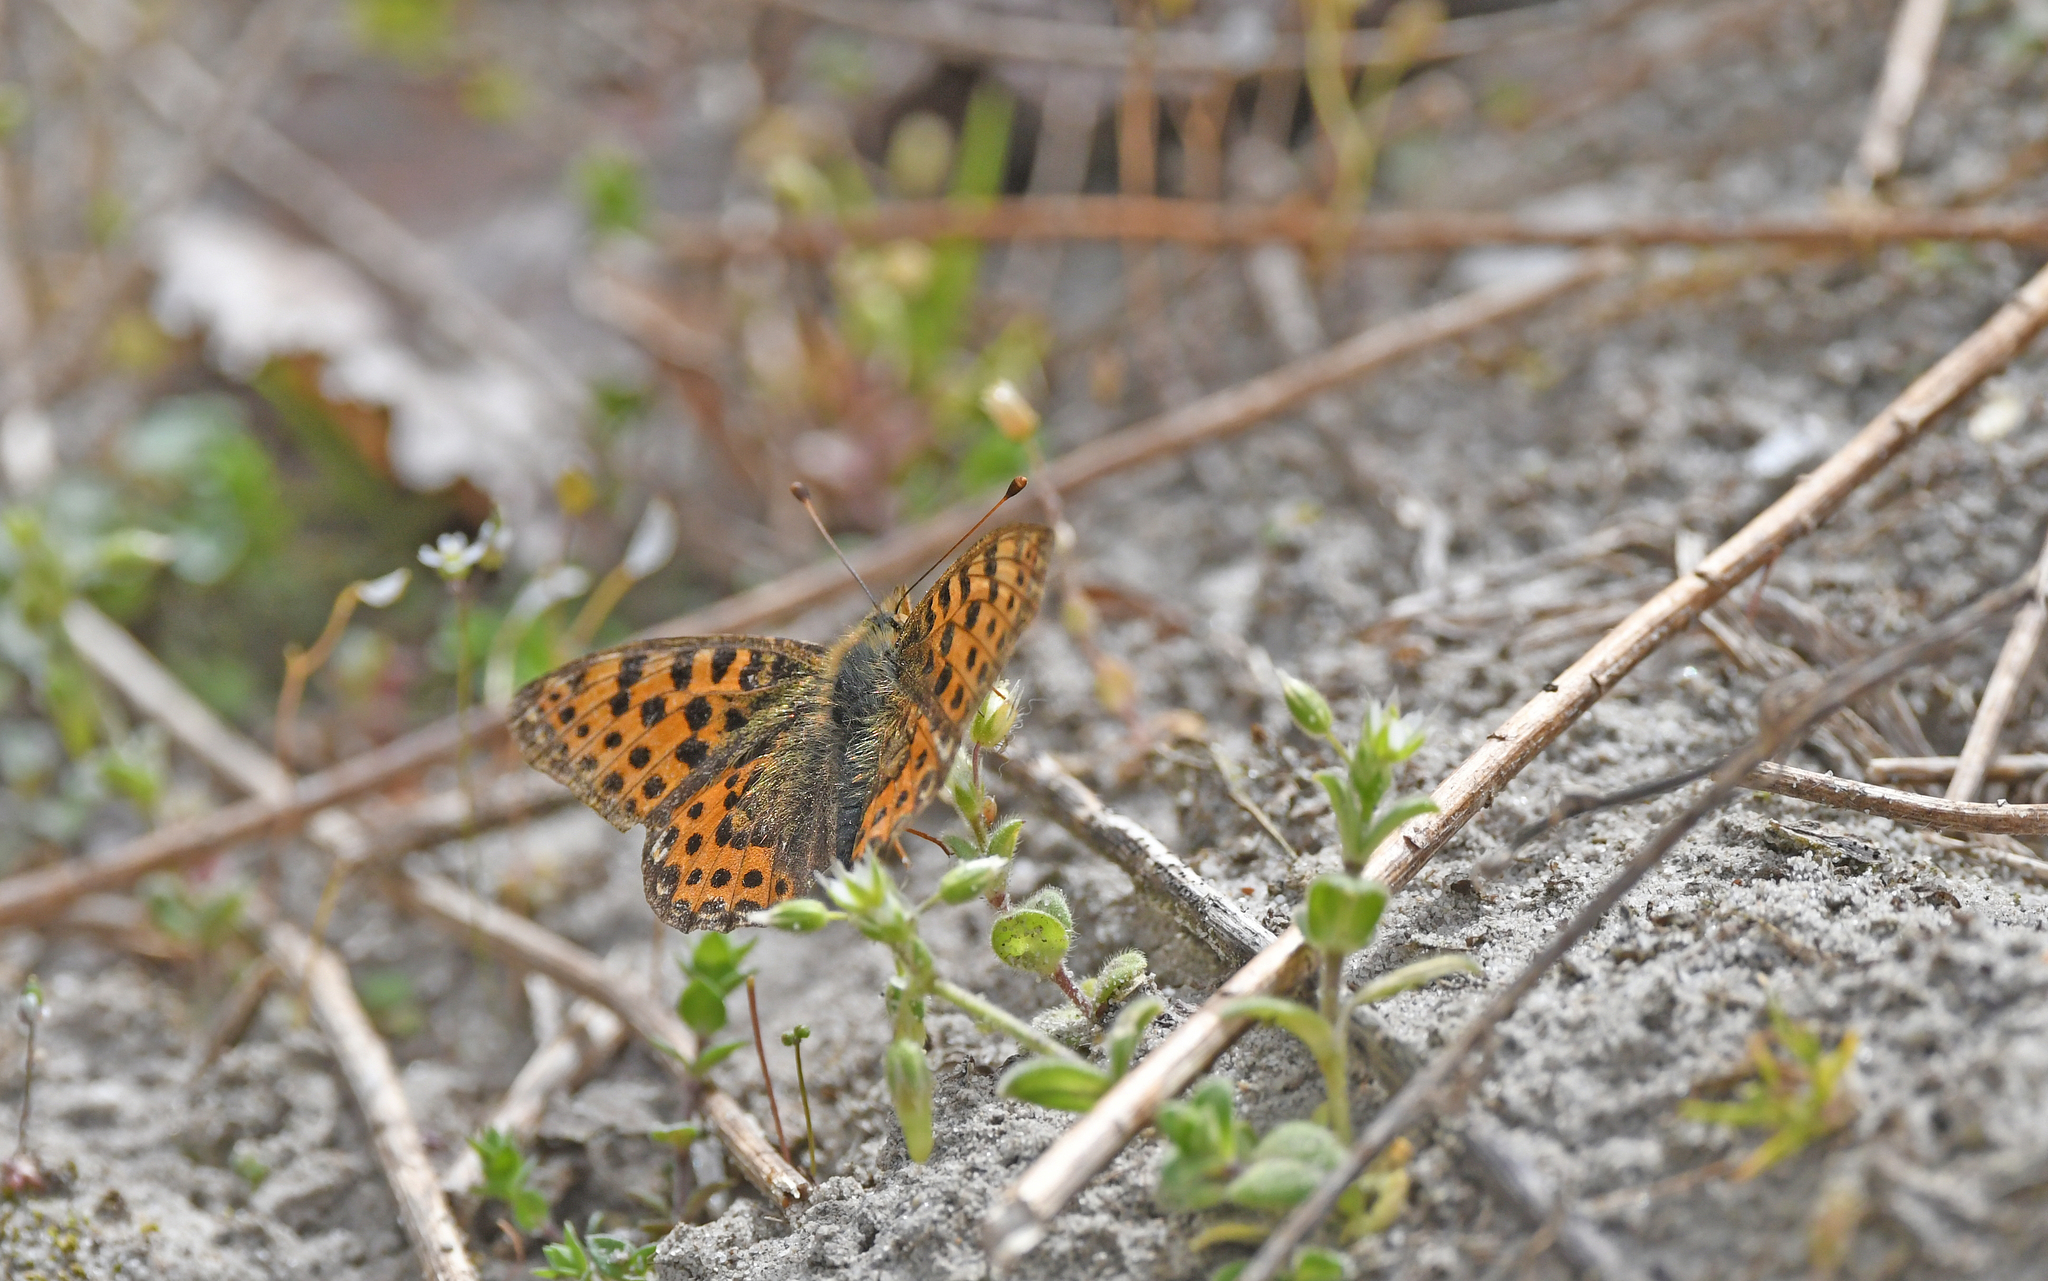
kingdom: Animalia
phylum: Arthropoda
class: Insecta
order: Lepidoptera
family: Nymphalidae
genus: Issoria
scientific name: Issoria lathonia
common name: Queen of spain fritillary
